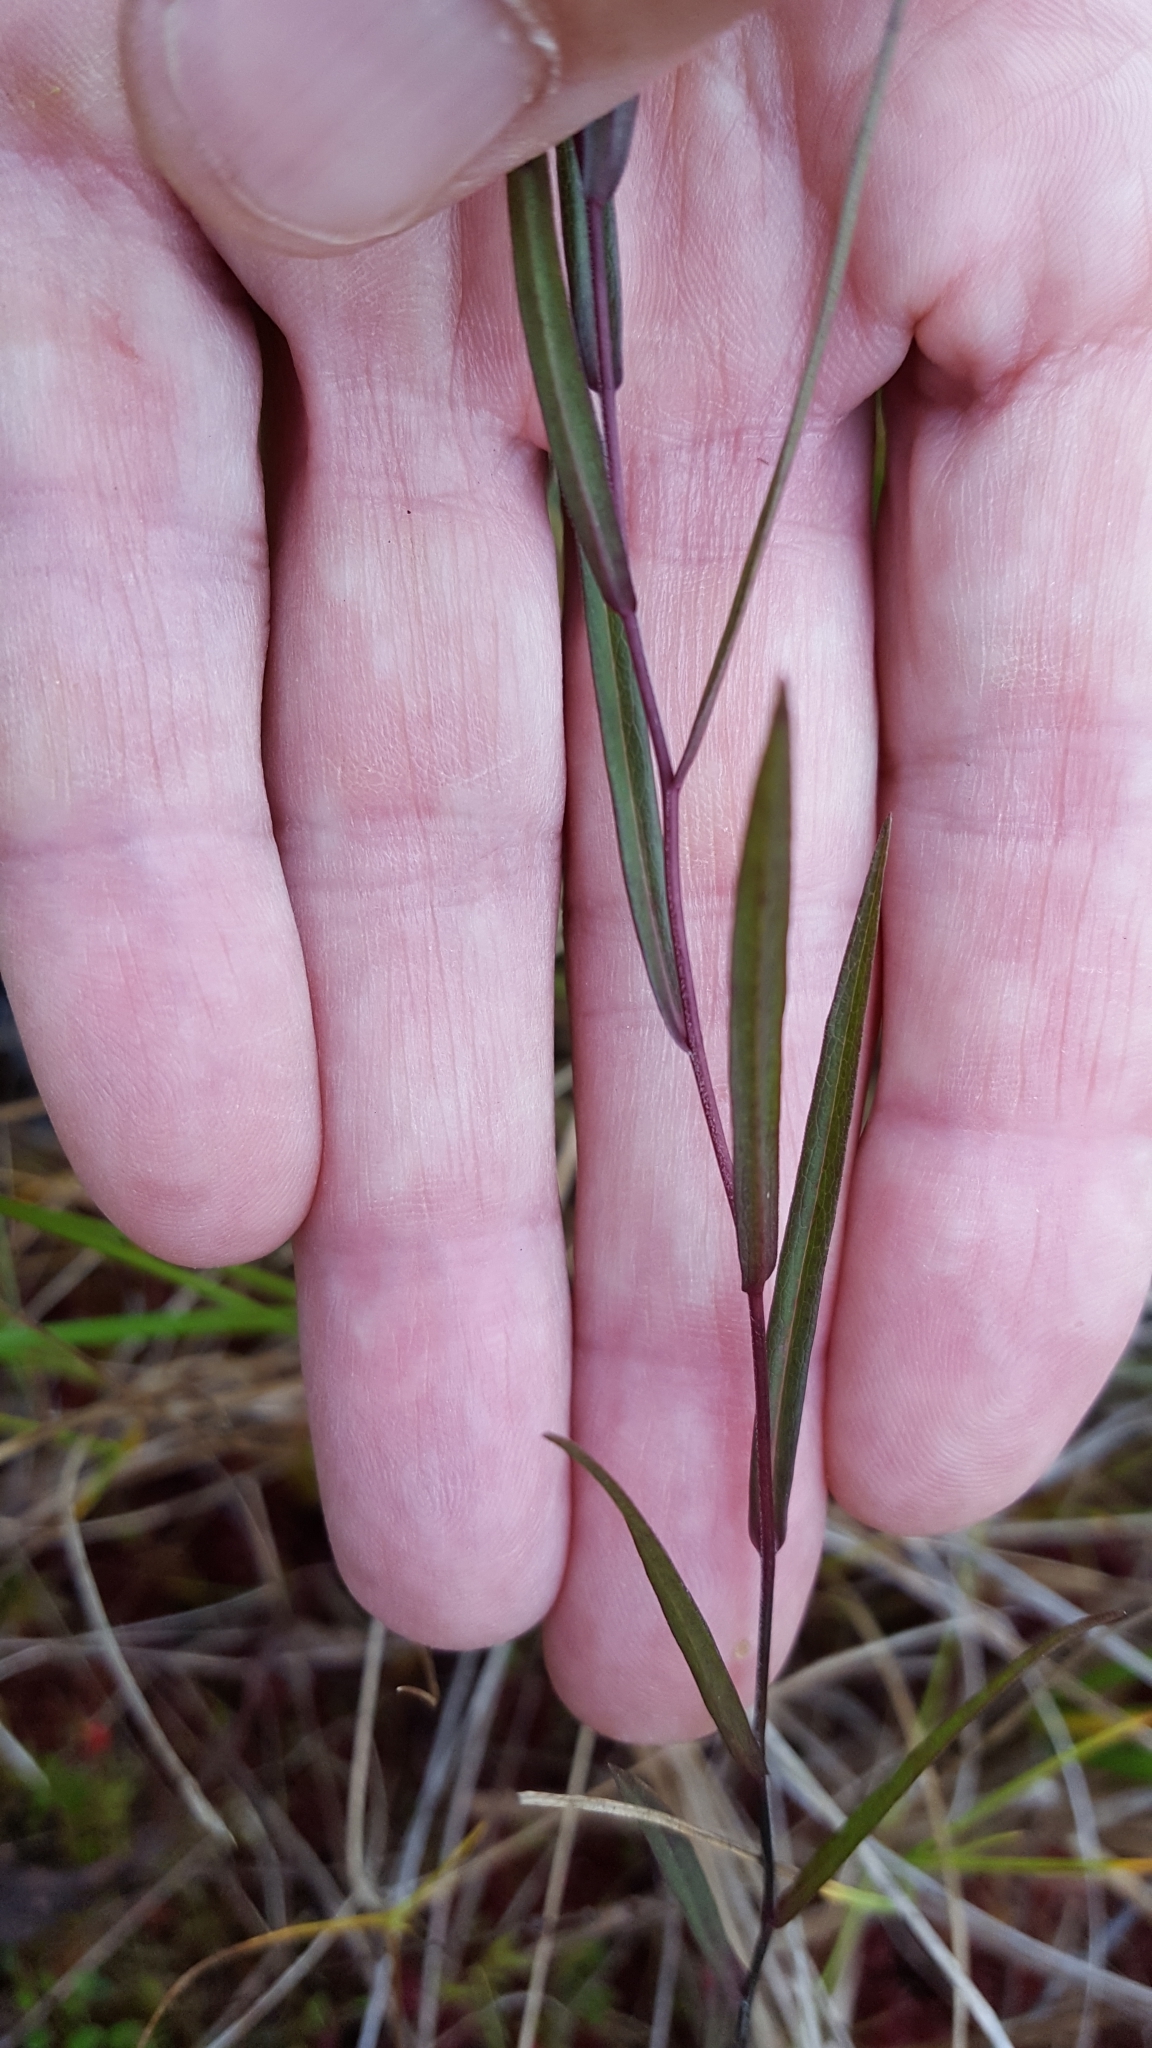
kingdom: Plantae
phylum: Tracheophyta
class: Magnoliopsida
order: Asterales
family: Asteraceae
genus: Symphyotrichum
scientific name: Symphyotrichum boreale
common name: Northern bog aster
